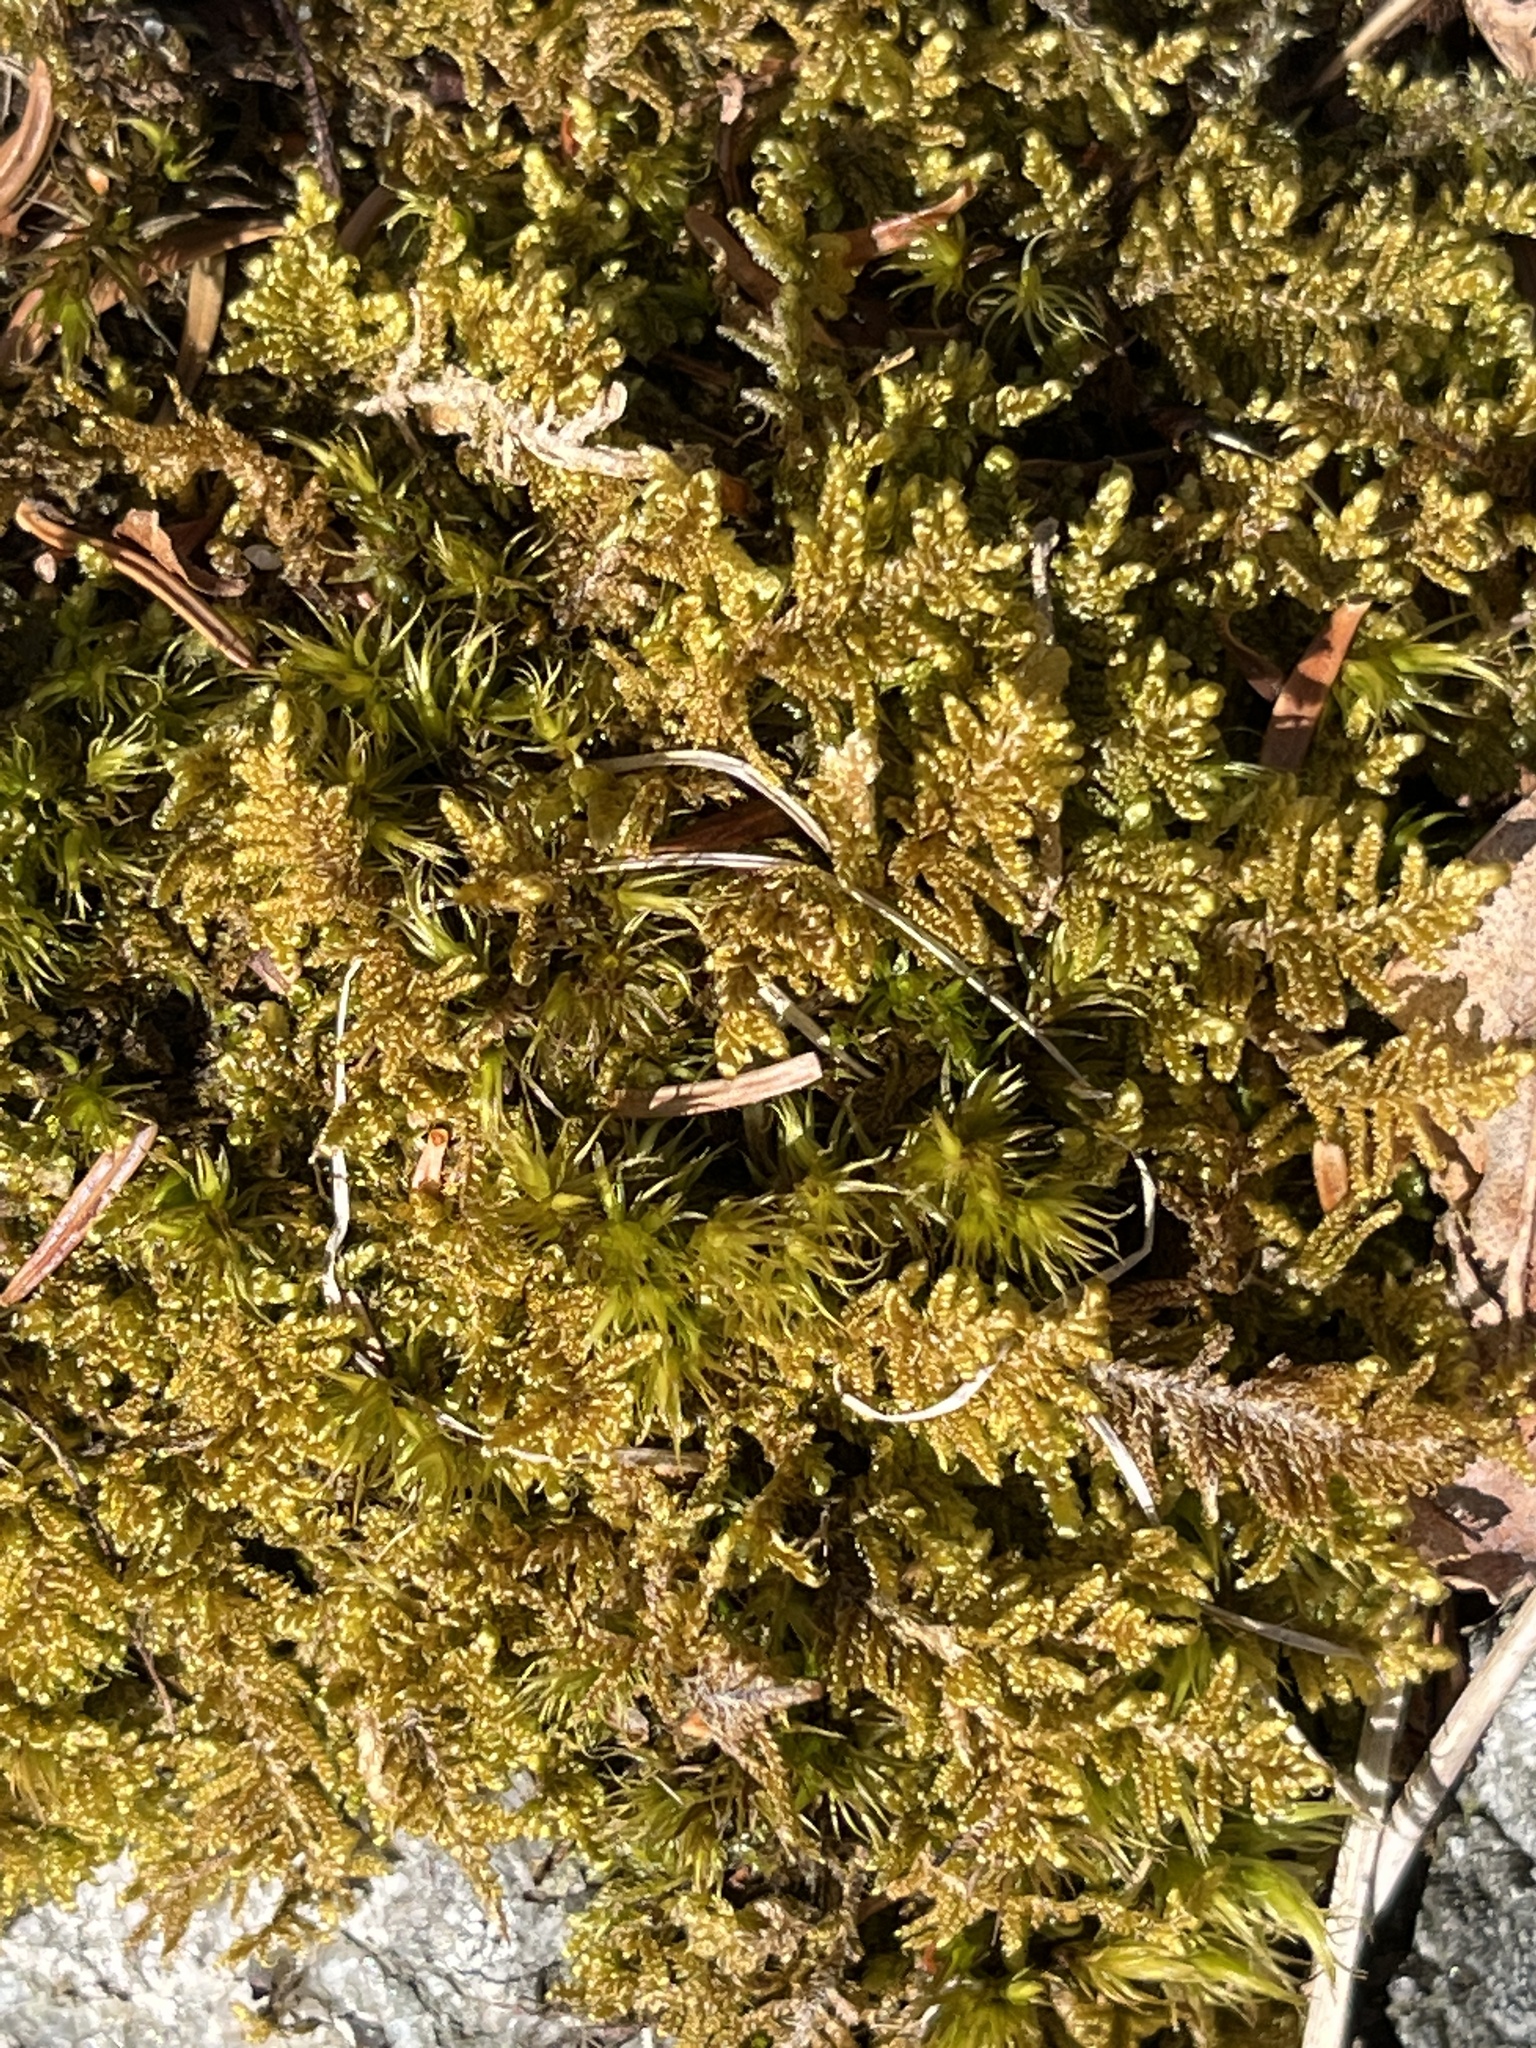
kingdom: Plantae
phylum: Bryophyta
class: Bryopsida
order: Hypnales
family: Callicladiaceae
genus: Callicladium
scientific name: Callicladium imponens
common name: Brocade moss
